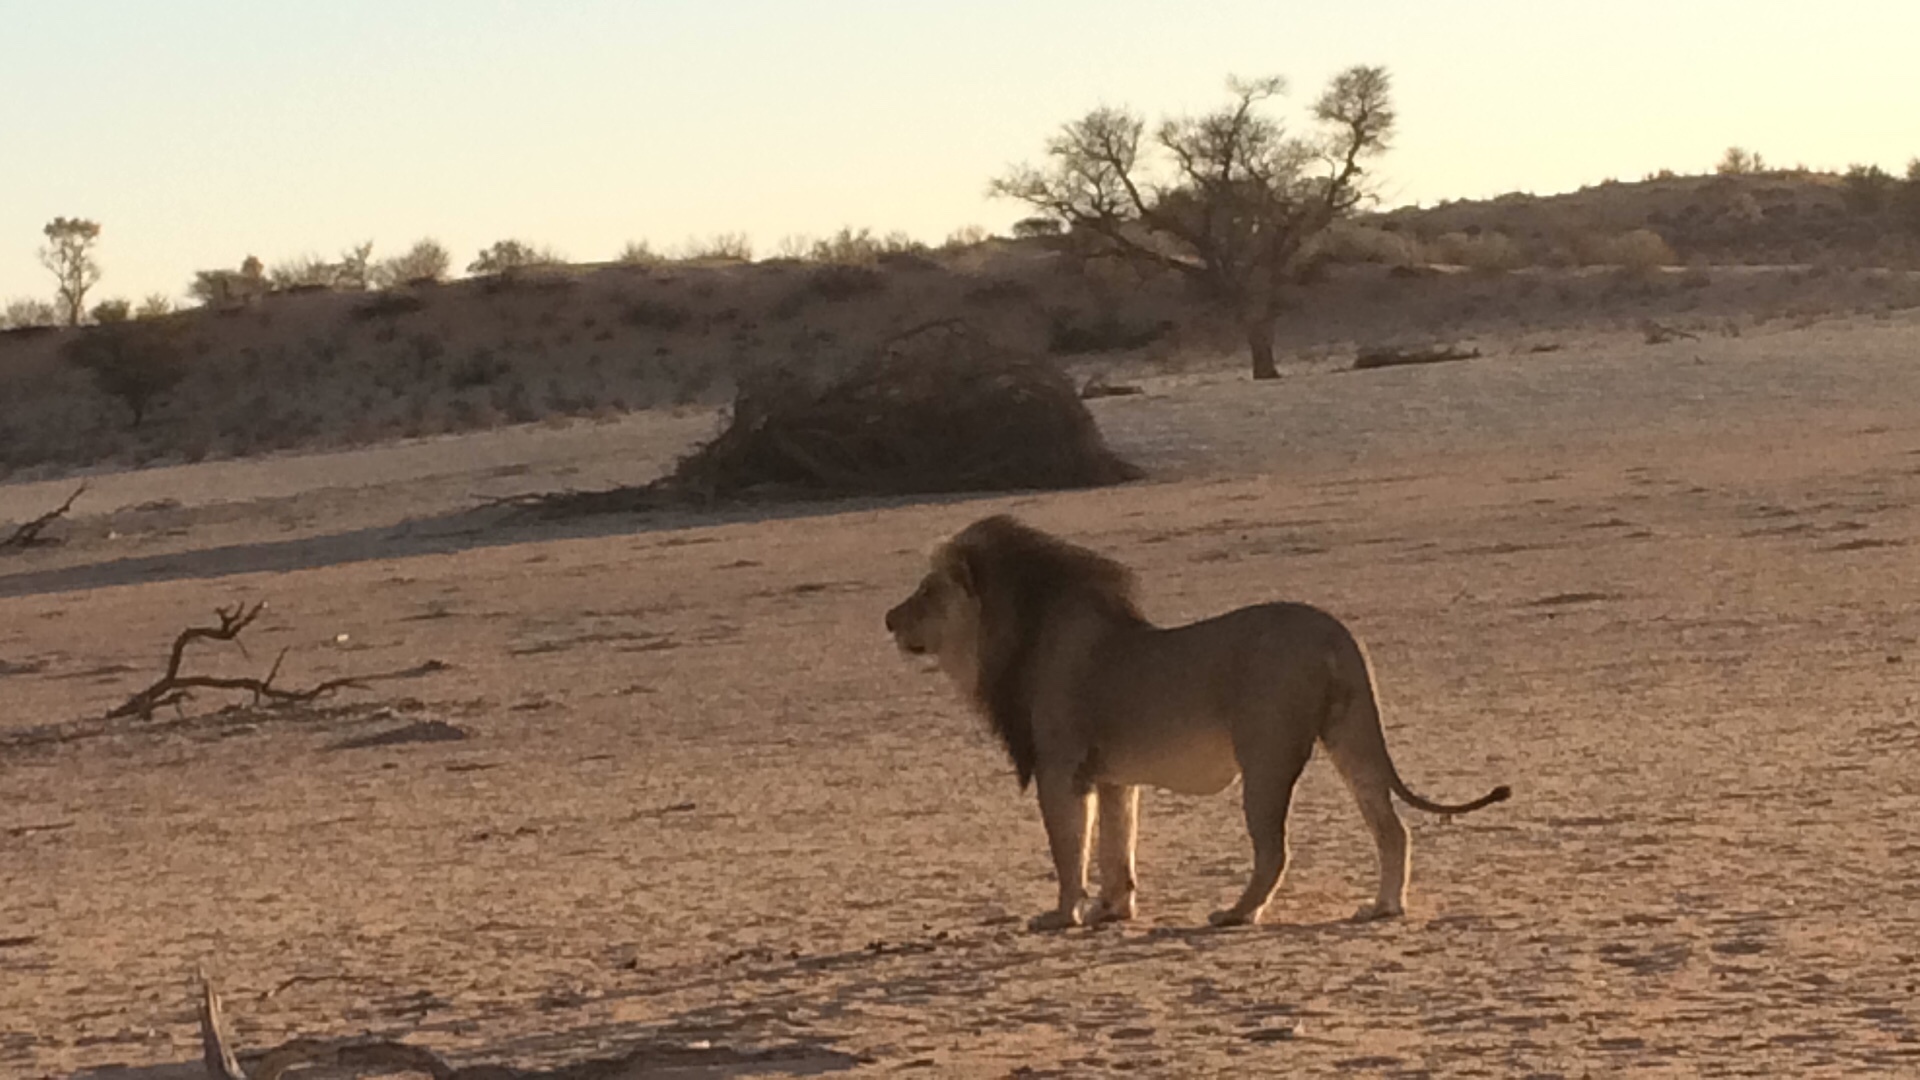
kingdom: Animalia
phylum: Chordata
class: Mammalia
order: Carnivora
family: Felidae
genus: Panthera
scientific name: Panthera leo
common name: Lion
